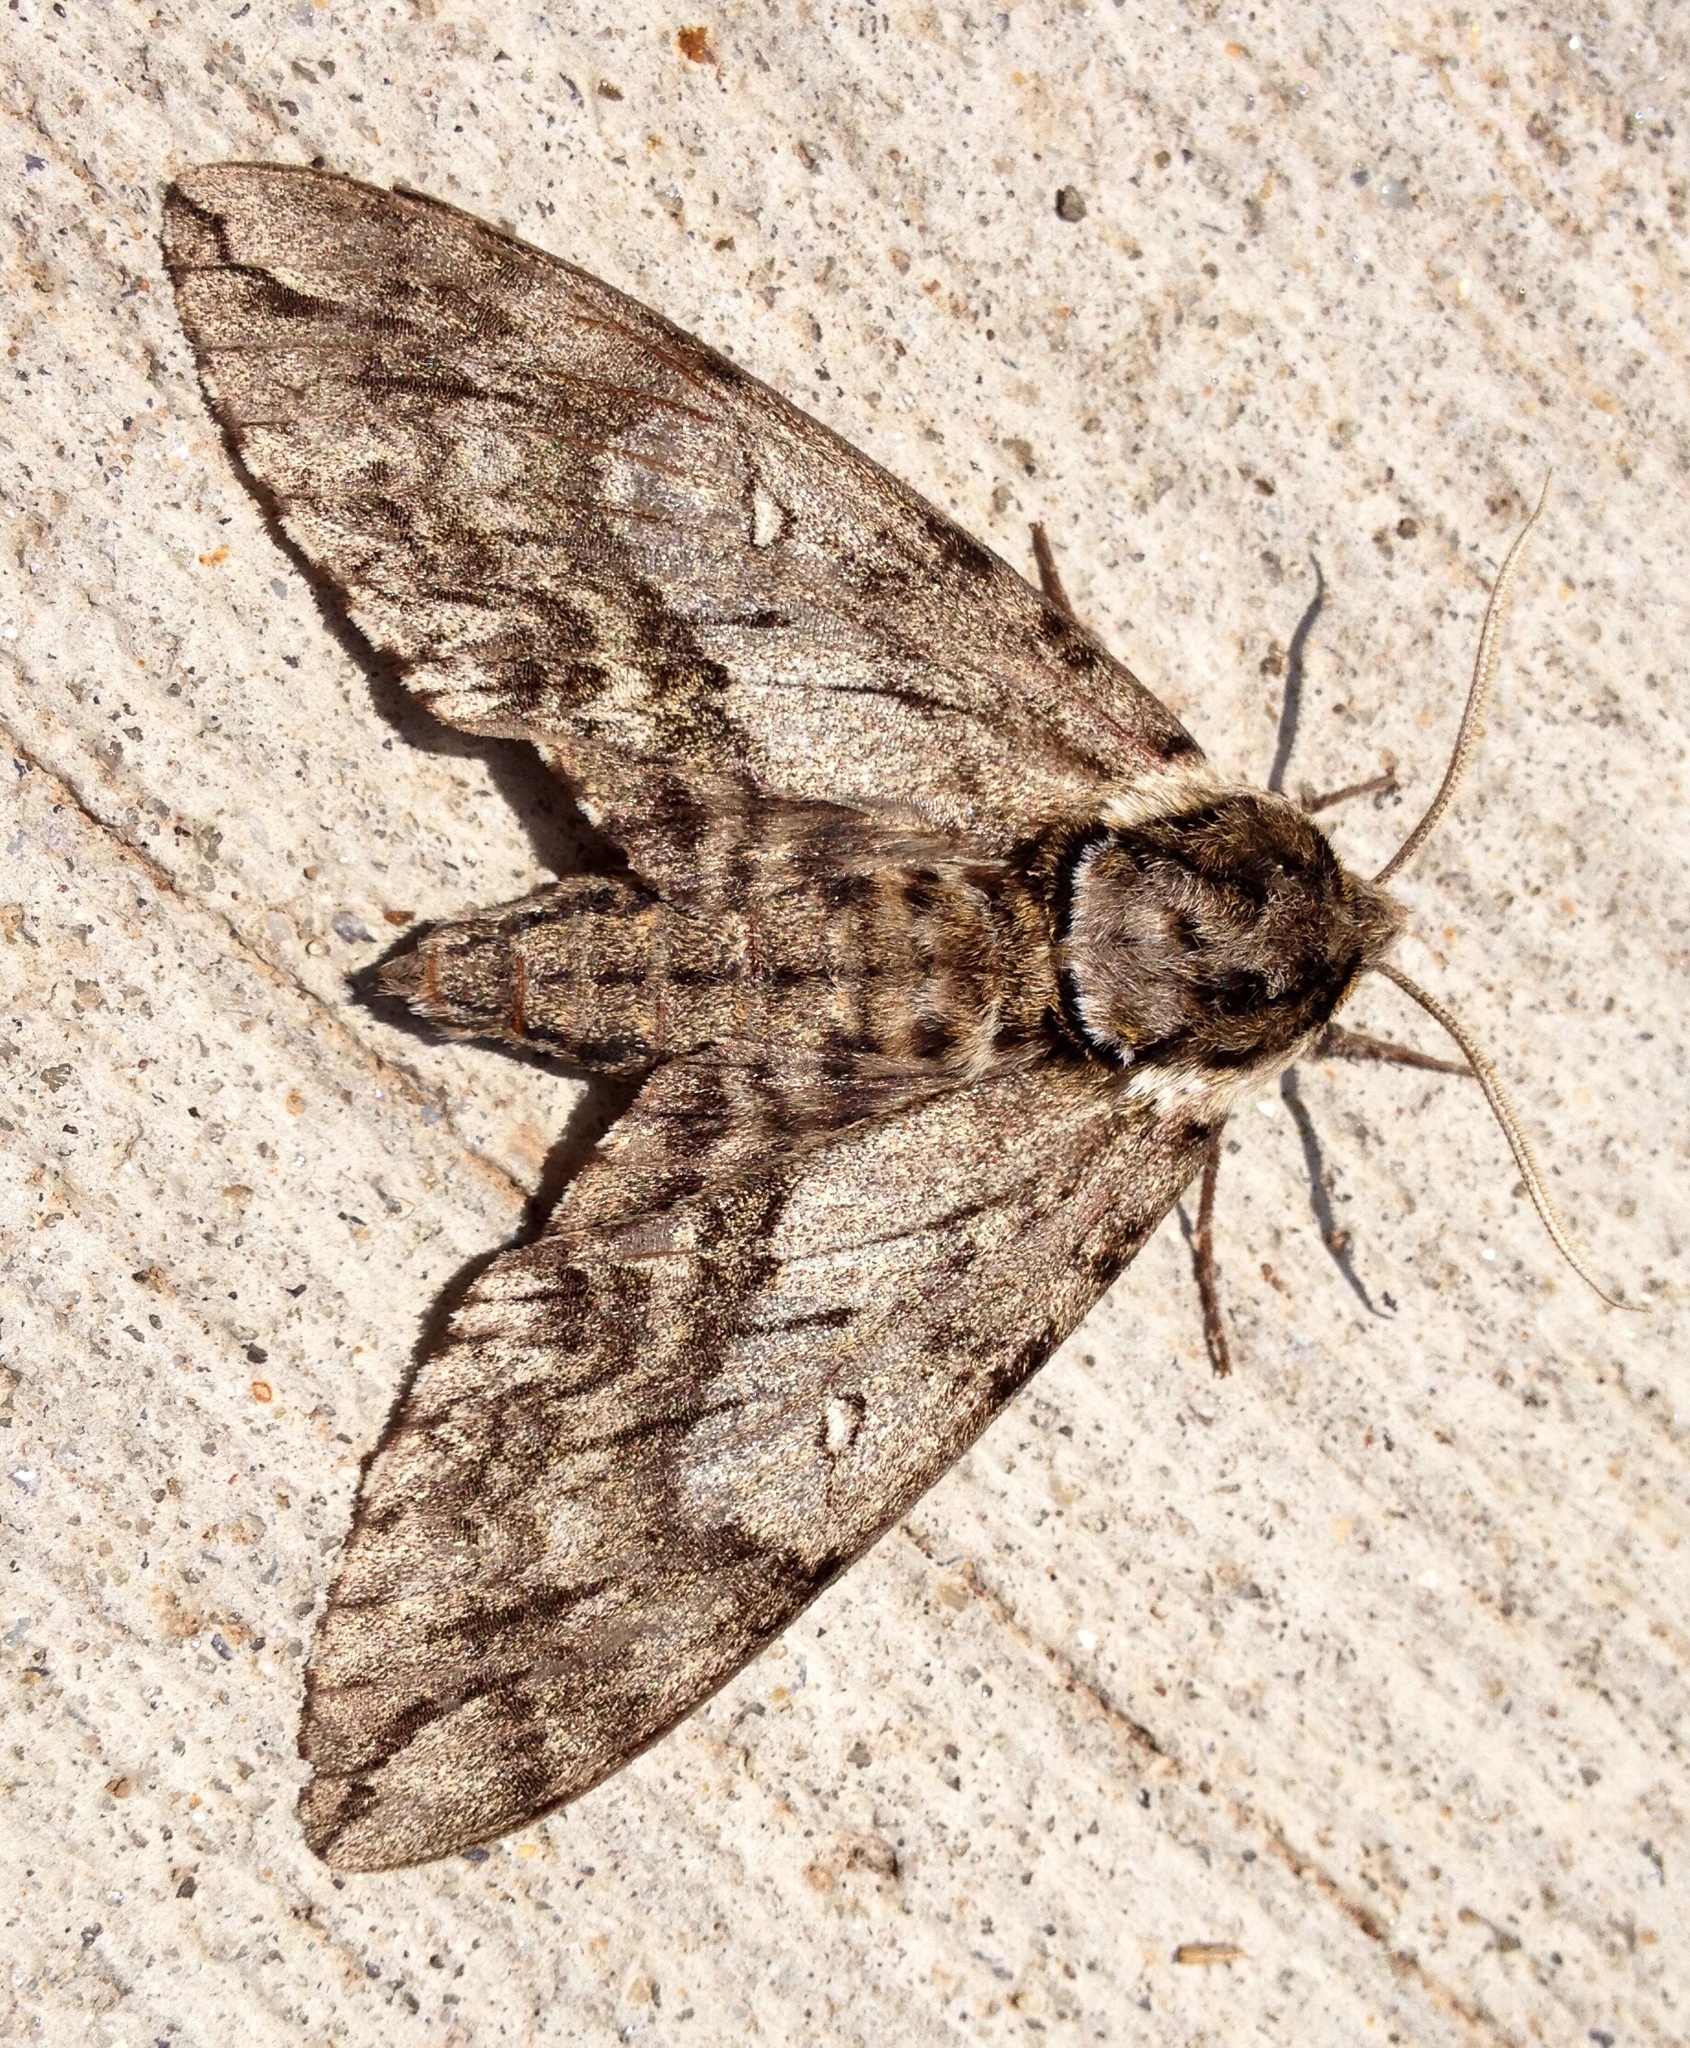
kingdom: Animalia
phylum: Arthropoda
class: Insecta
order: Lepidoptera
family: Sphingidae
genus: Ceratomia
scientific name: Ceratomia undulosa
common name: Waved sphinx
